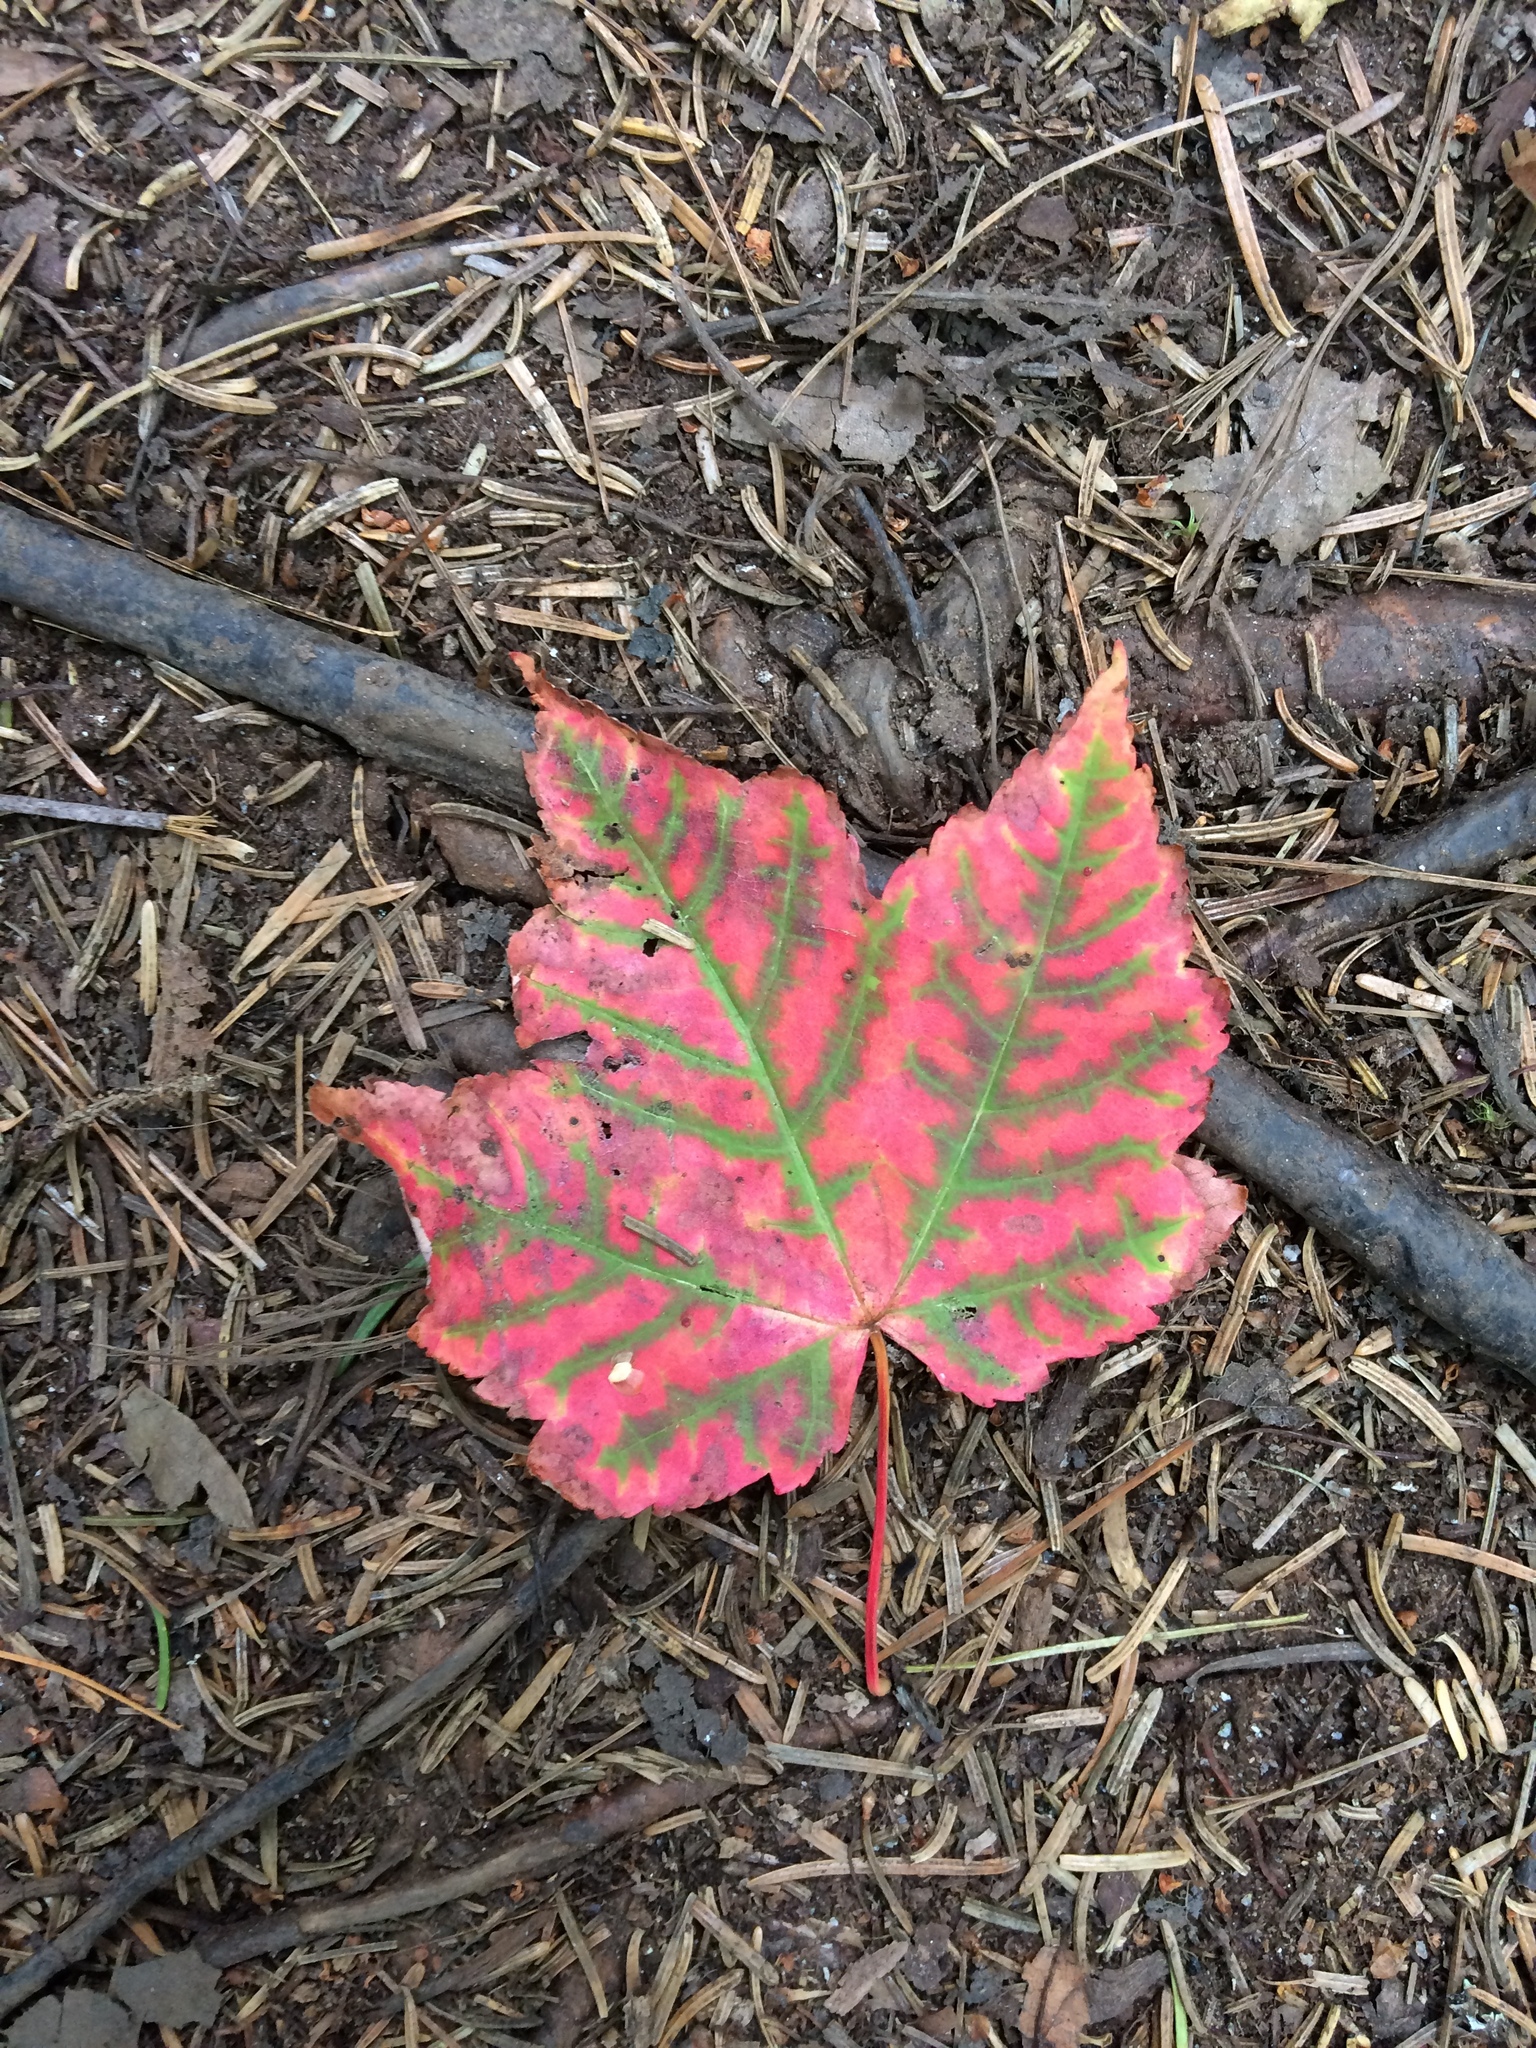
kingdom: Plantae
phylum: Tracheophyta
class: Magnoliopsida
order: Sapindales
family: Sapindaceae
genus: Acer
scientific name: Acer rubrum
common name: Red maple
